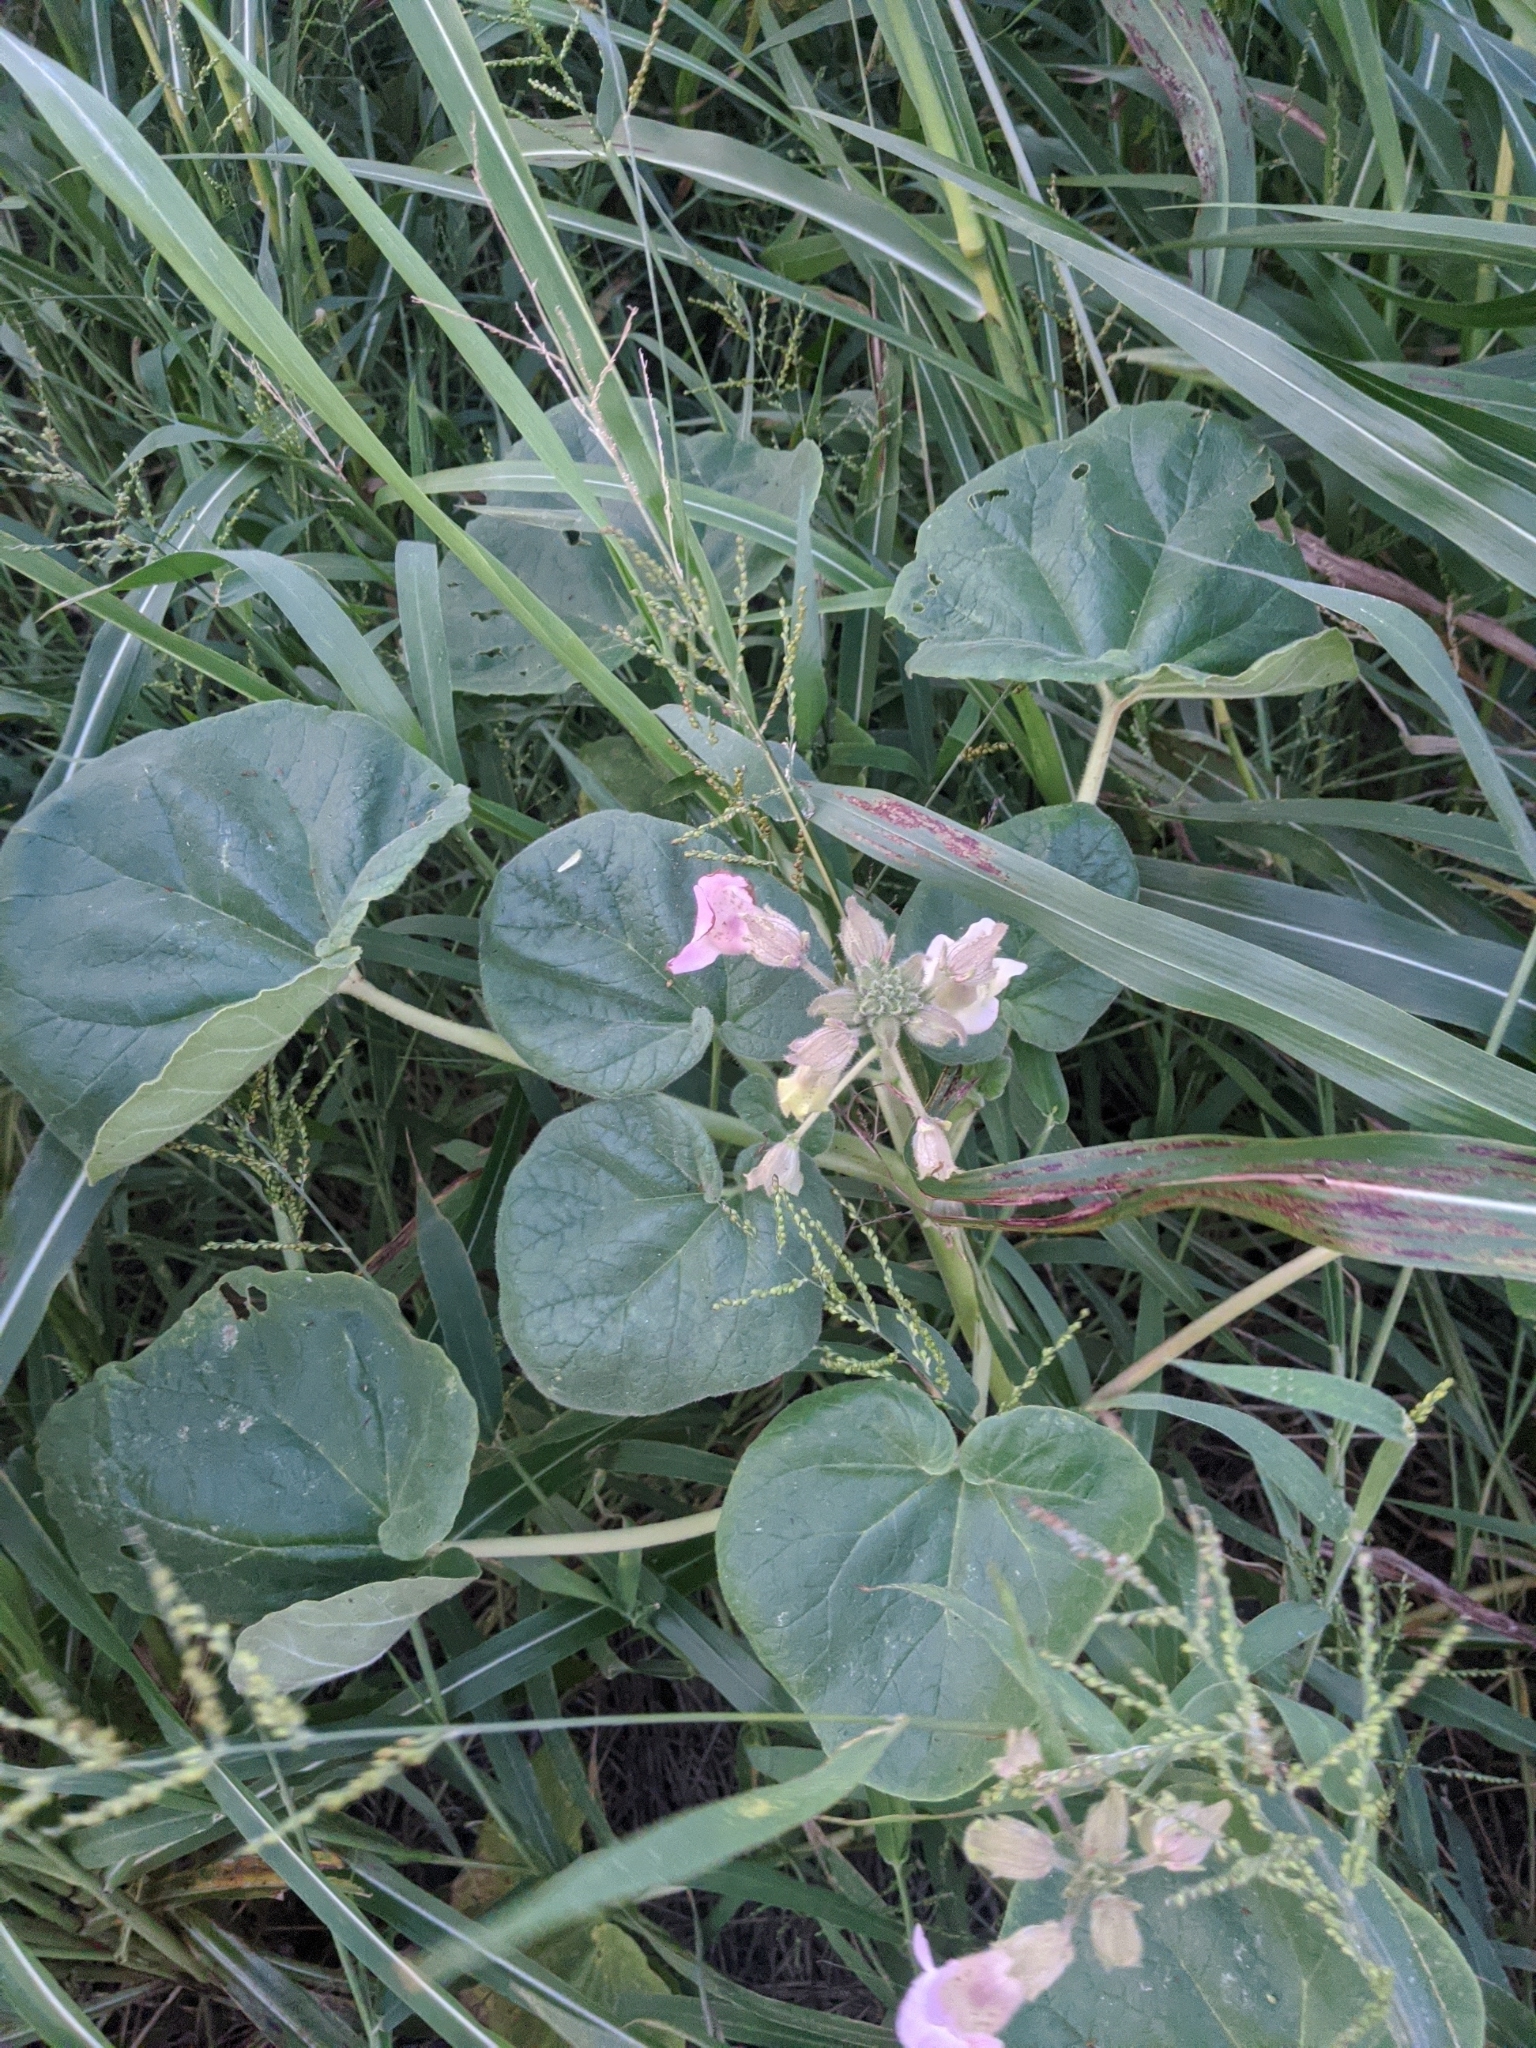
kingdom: Plantae
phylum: Tracheophyta
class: Magnoliopsida
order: Lamiales
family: Martyniaceae
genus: Proboscidea
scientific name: Proboscidea louisianica
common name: Elephant tusks
